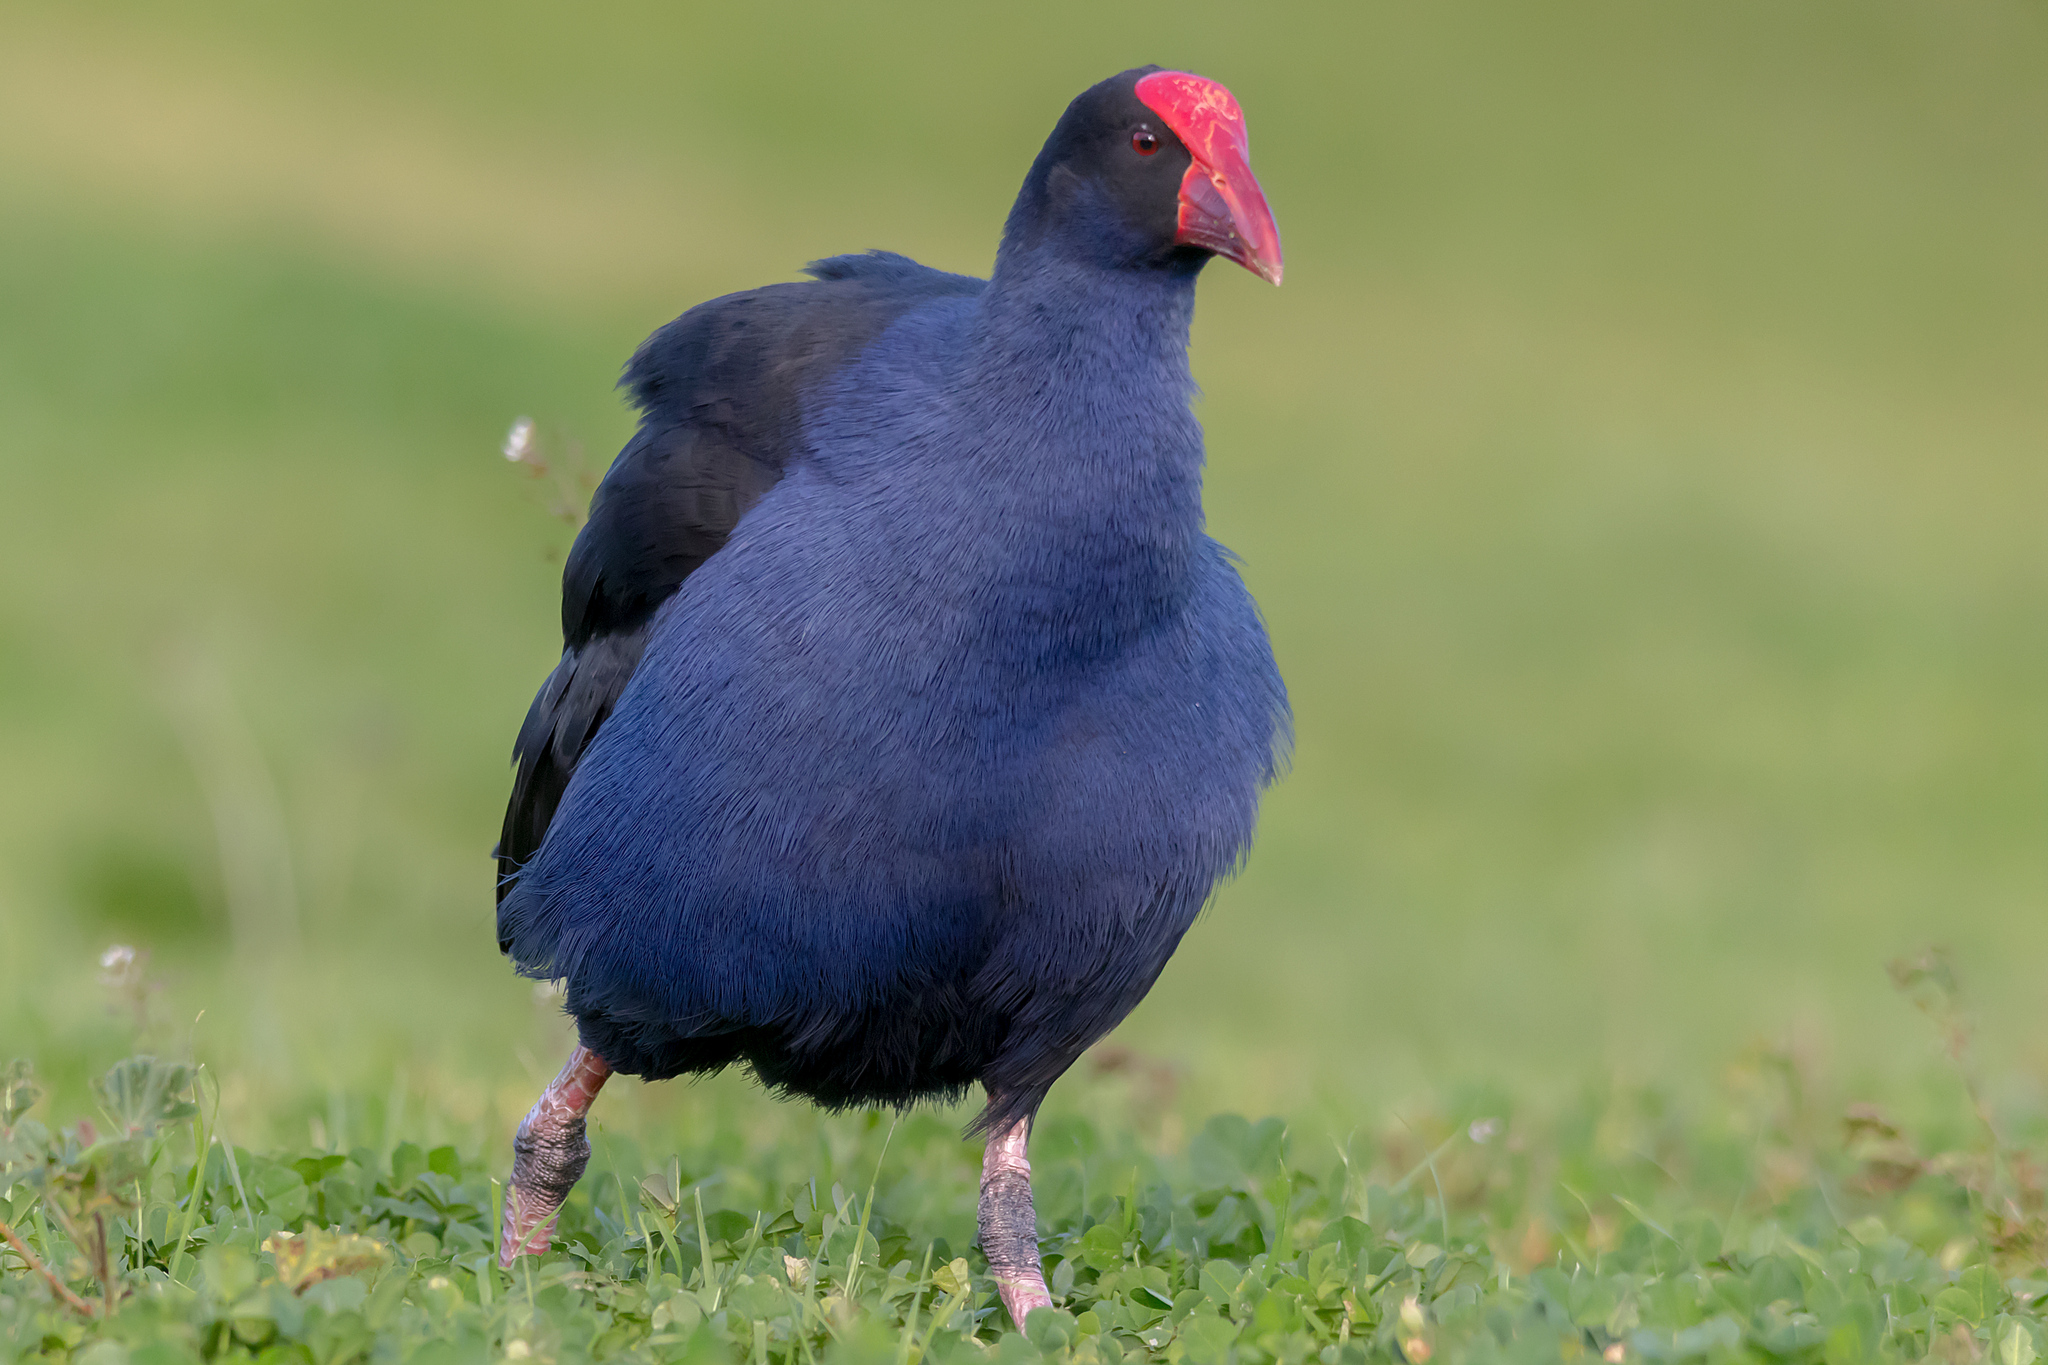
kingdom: Animalia
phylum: Chordata
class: Aves
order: Gruiformes
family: Rallidae
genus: Porphyrio
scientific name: Porphyrio melanotus
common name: Australasian swamphen
